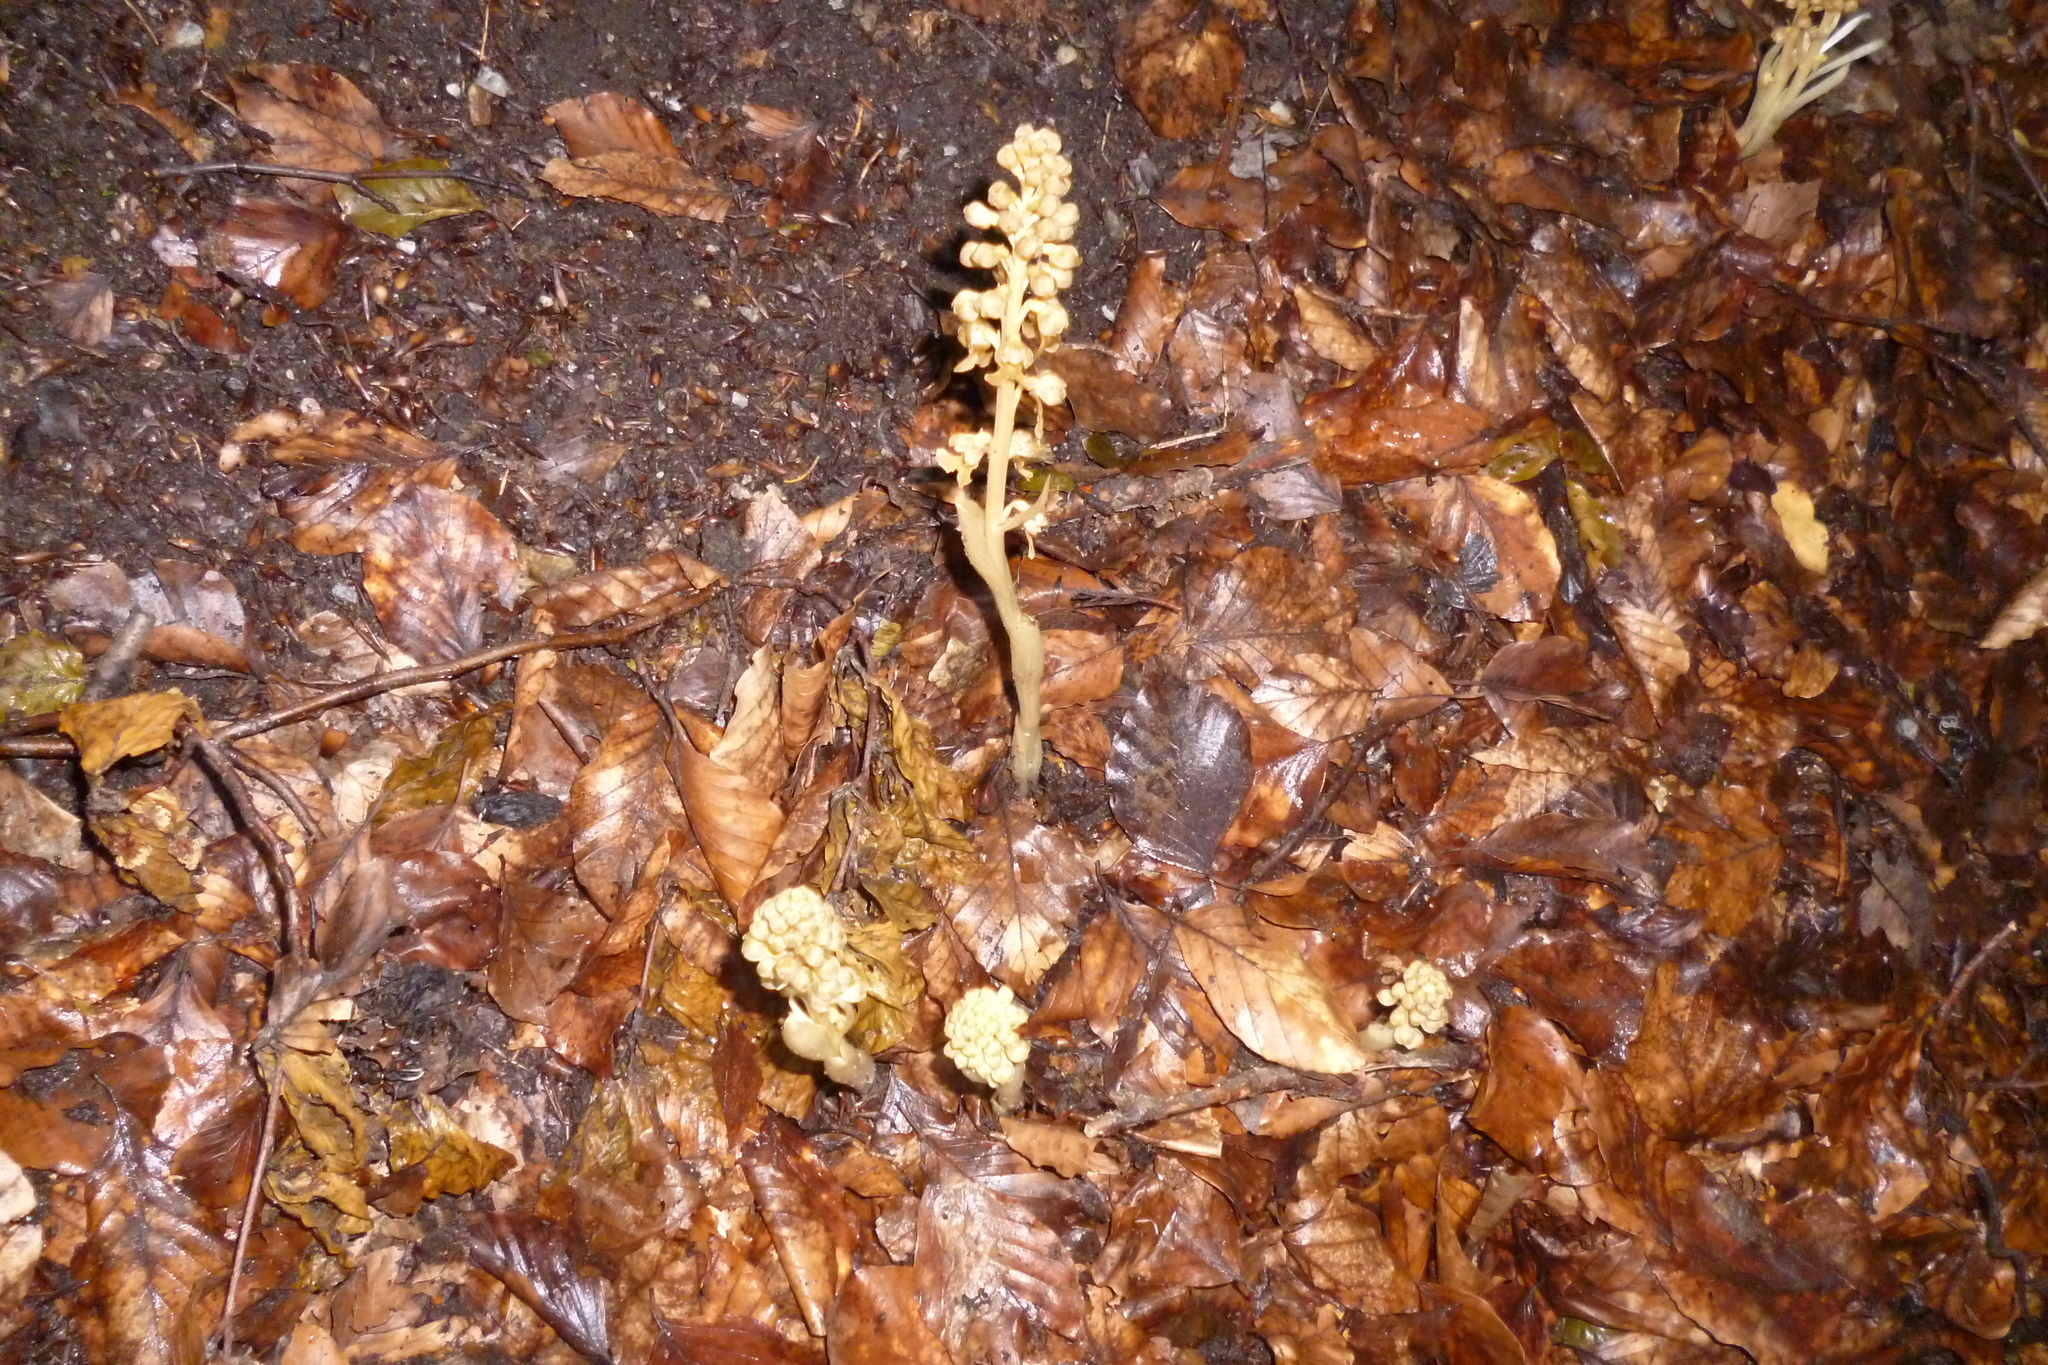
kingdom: Plantae
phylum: Tracheophyta
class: Liliopsida
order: Asparagales
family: Orchidaceae
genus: Neottia
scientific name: Neottia nidus-avis
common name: Bird's-nest orchid
